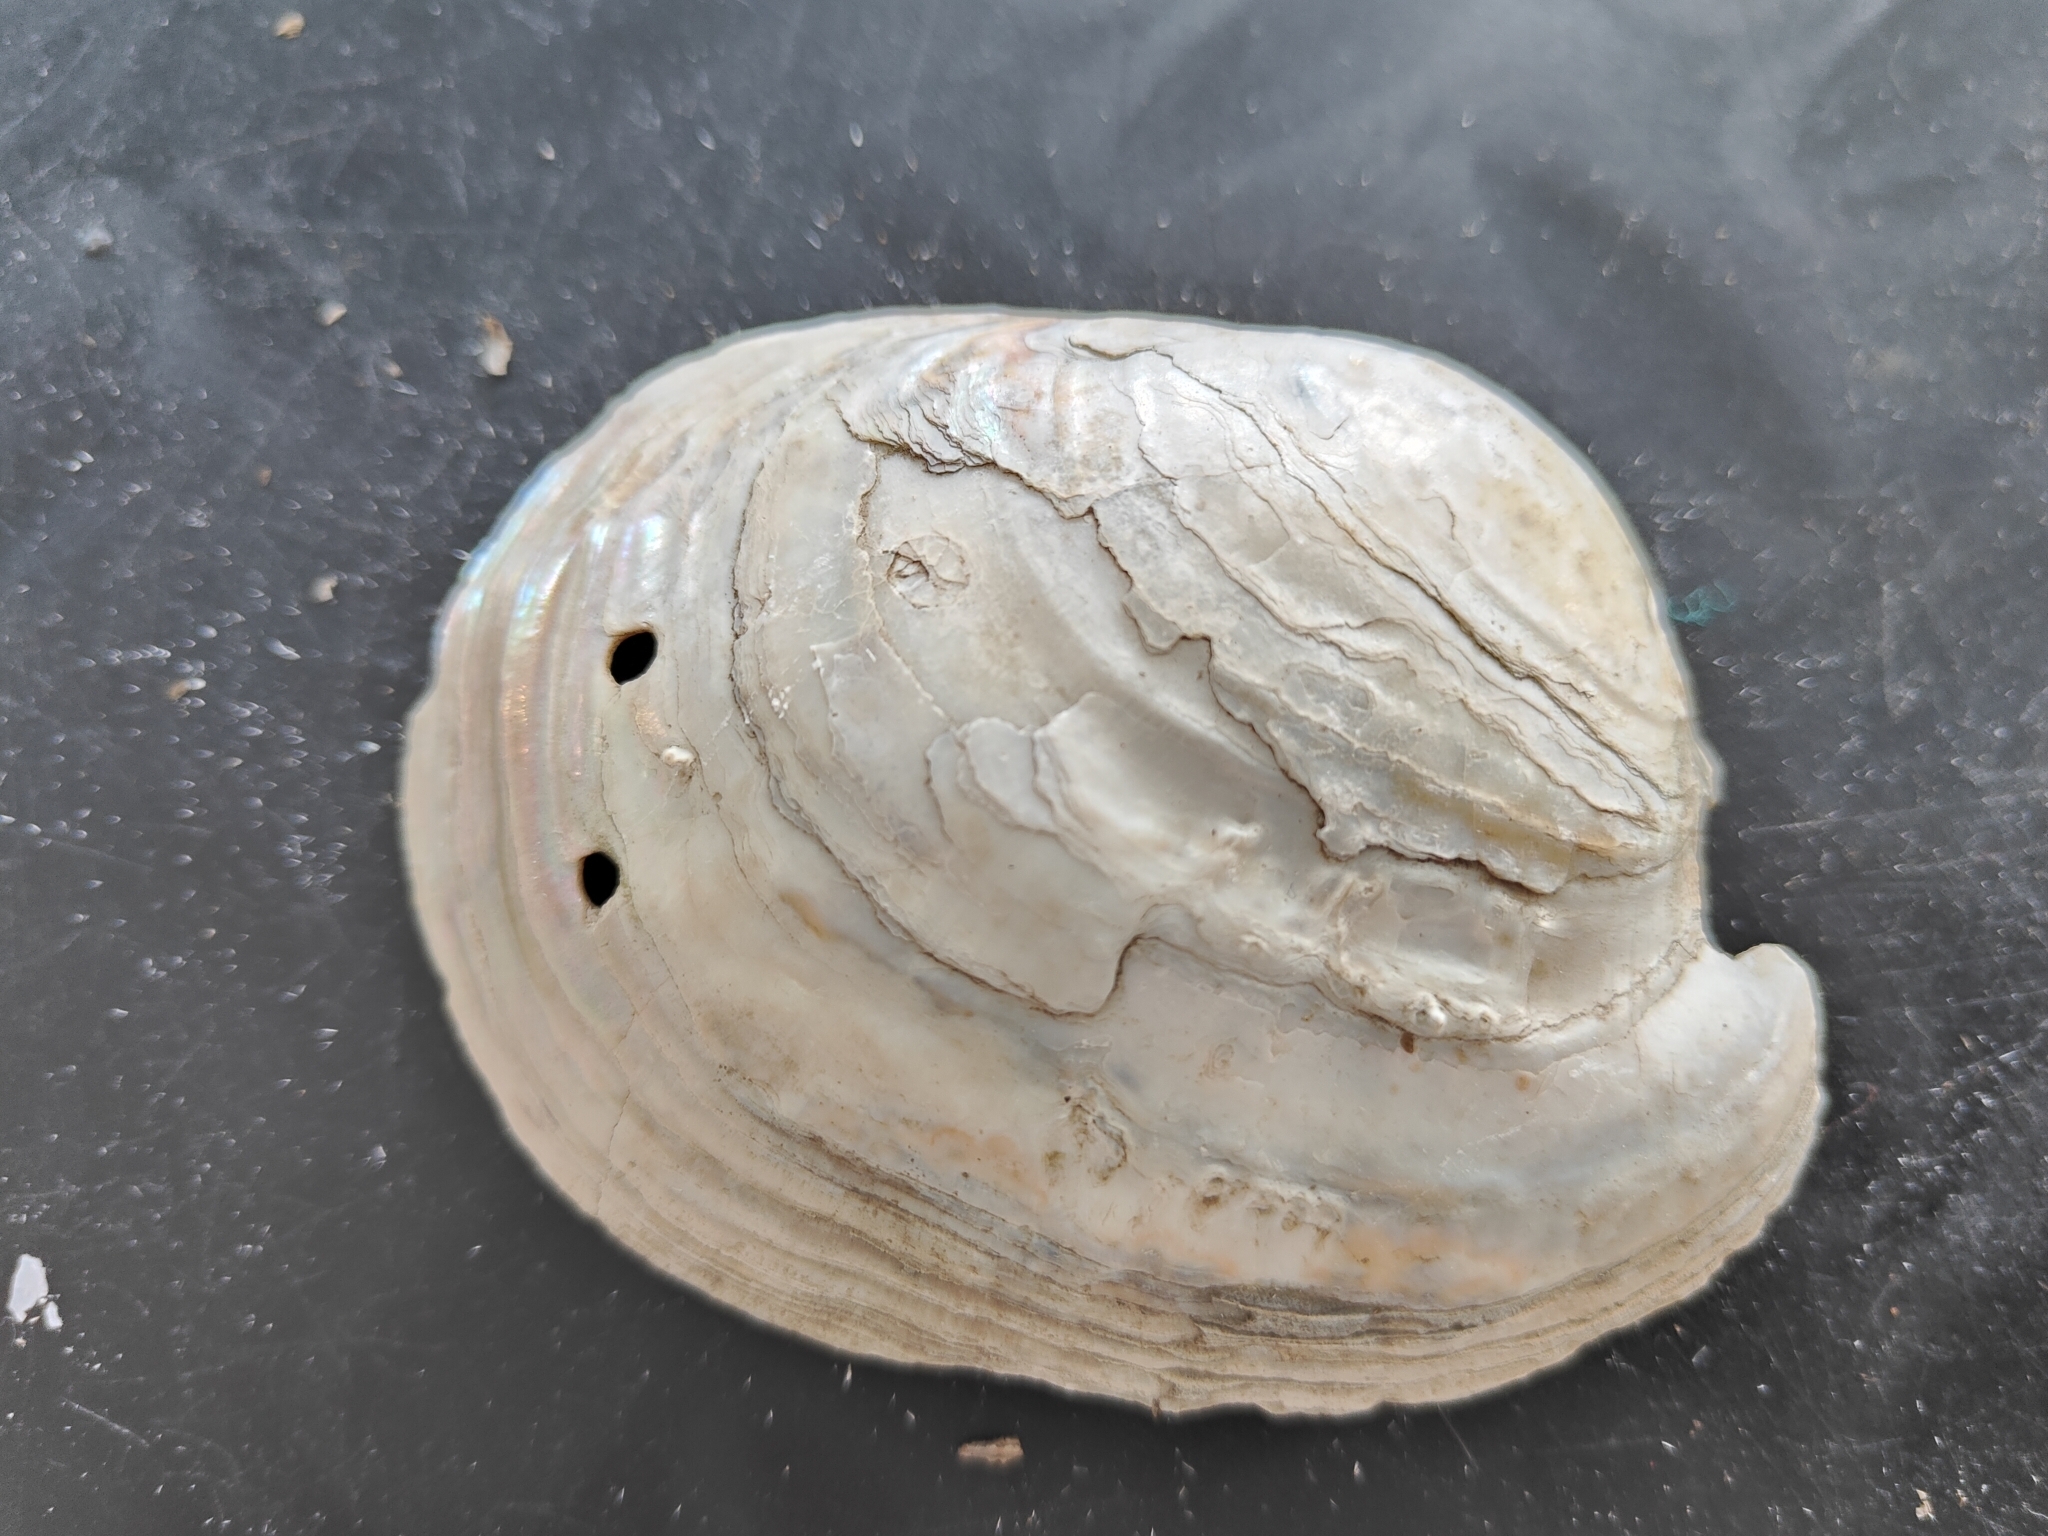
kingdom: Animalia
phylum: Mollusca
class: Bivalvia
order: Unionida
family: Unionidae
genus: Lampsilis
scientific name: Lampsilis cardium
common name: Plain pocketbook
